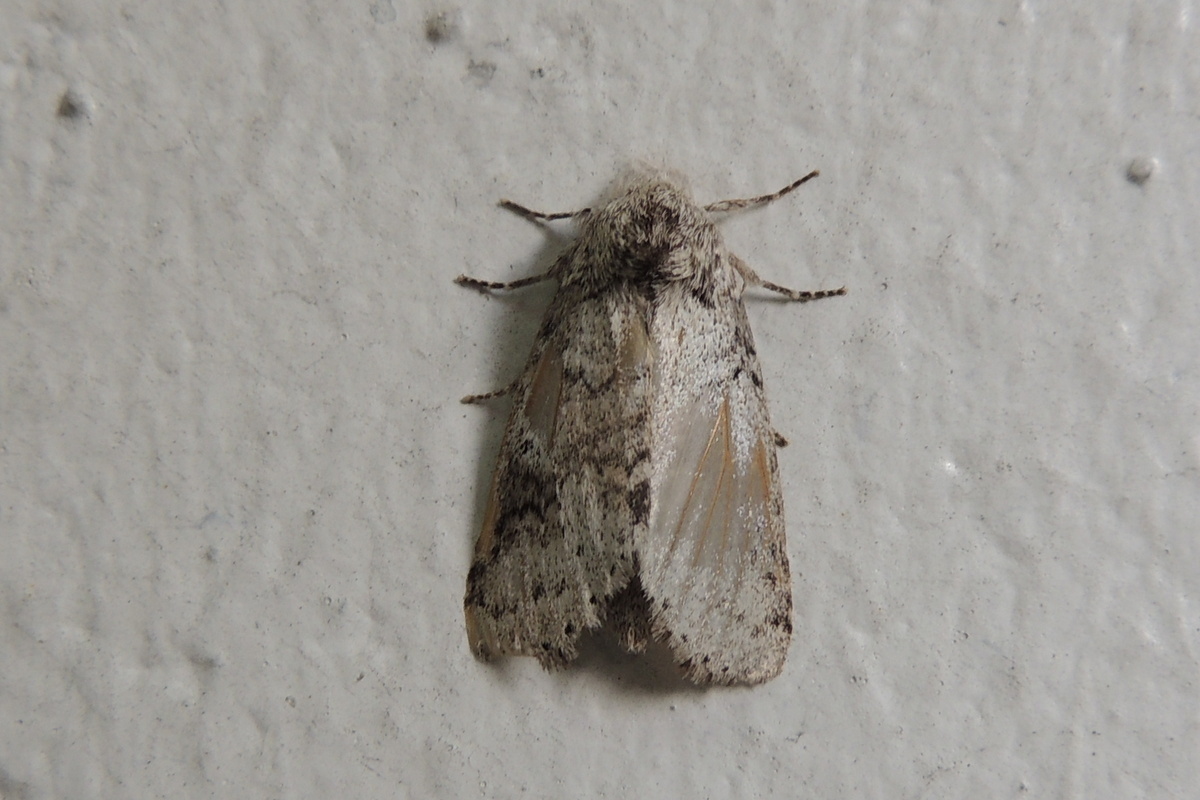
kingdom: Animalia
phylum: Arthropoda
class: Insecta
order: Lepidoptera
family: Notodontidae
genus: Lochmaeus
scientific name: Lochmaeus bilineata
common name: Double-lined prominent
